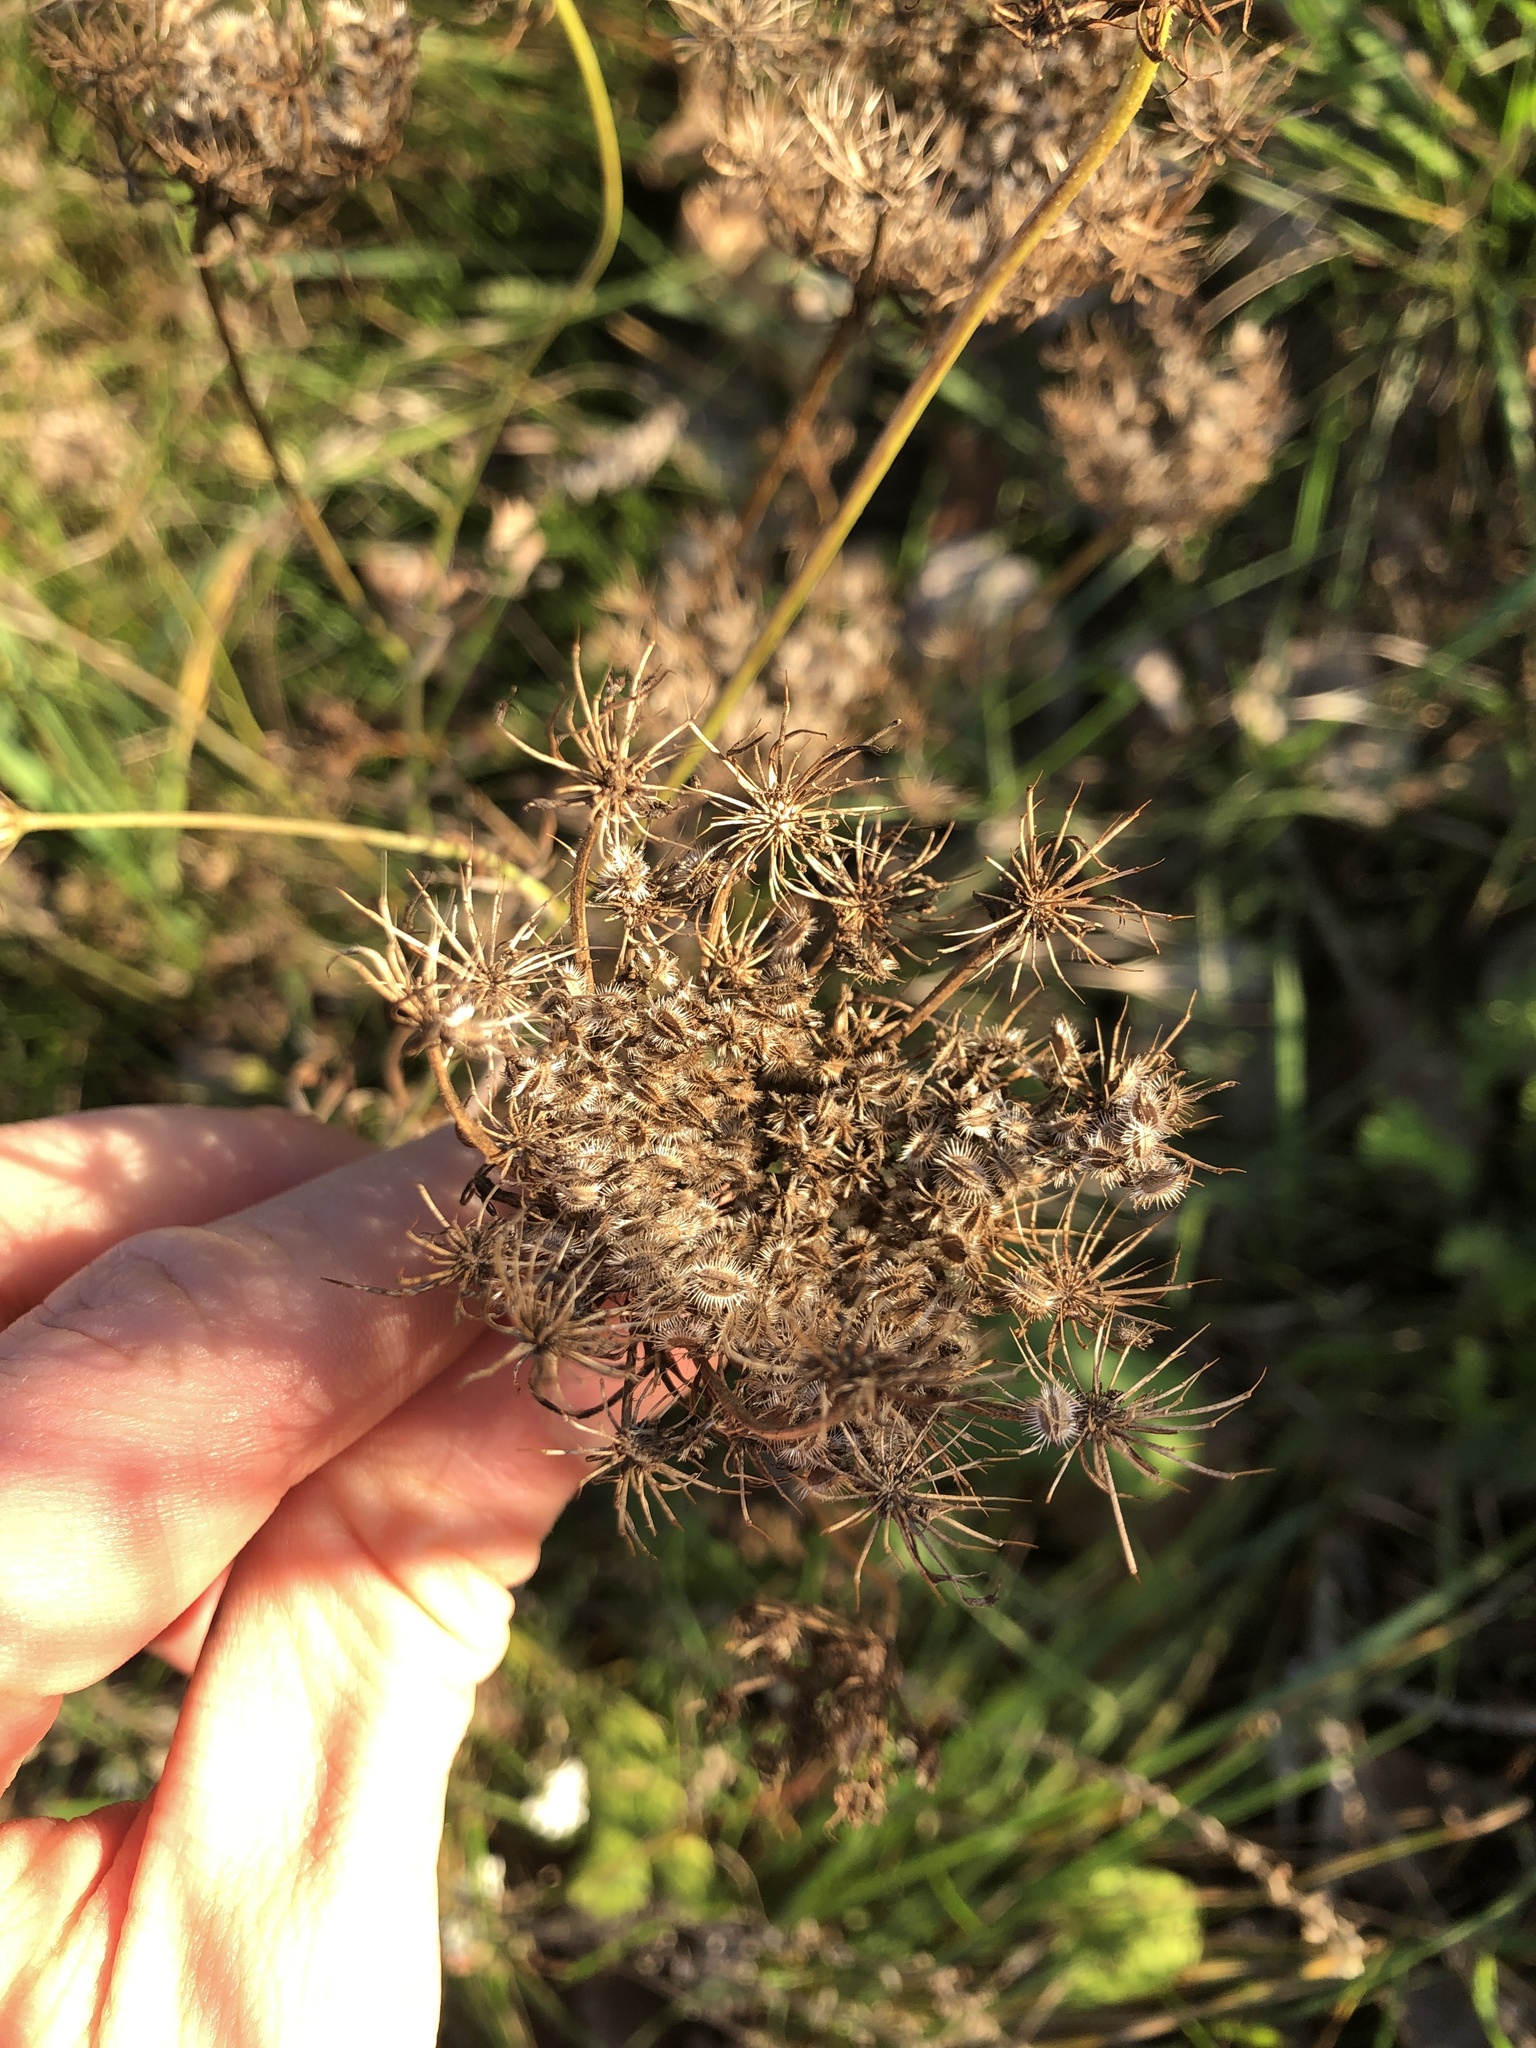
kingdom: Plantae
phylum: Tracheophyta
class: Magnoliopsida
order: Apiales
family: Apiaceae
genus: Daucus
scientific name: Daucus carota
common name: Wild carrot
